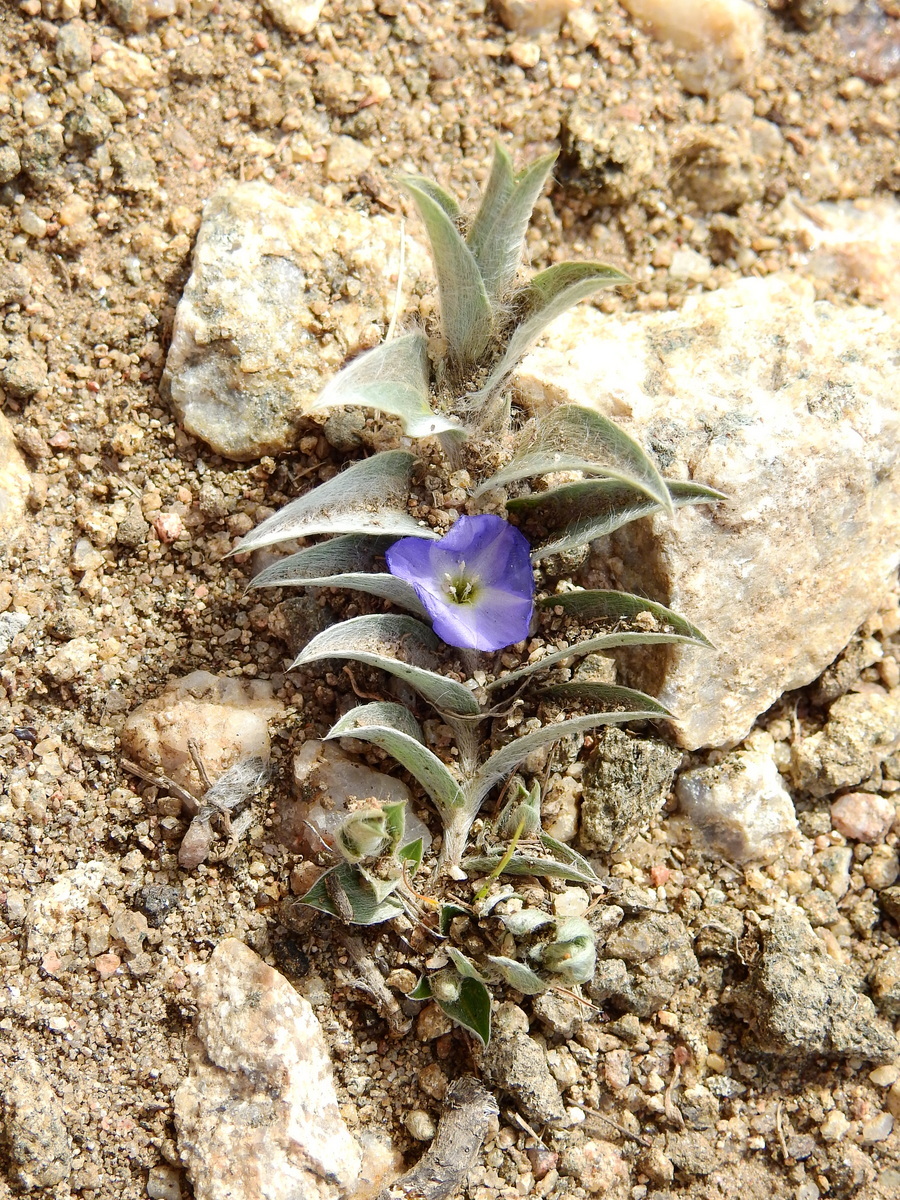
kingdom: Plantae
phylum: Tracheophyta
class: Magnoliopsida
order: Solanales
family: Convolvulaceae
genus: Evolvulus
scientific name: Evolvulus sericeus
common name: Blue dots
